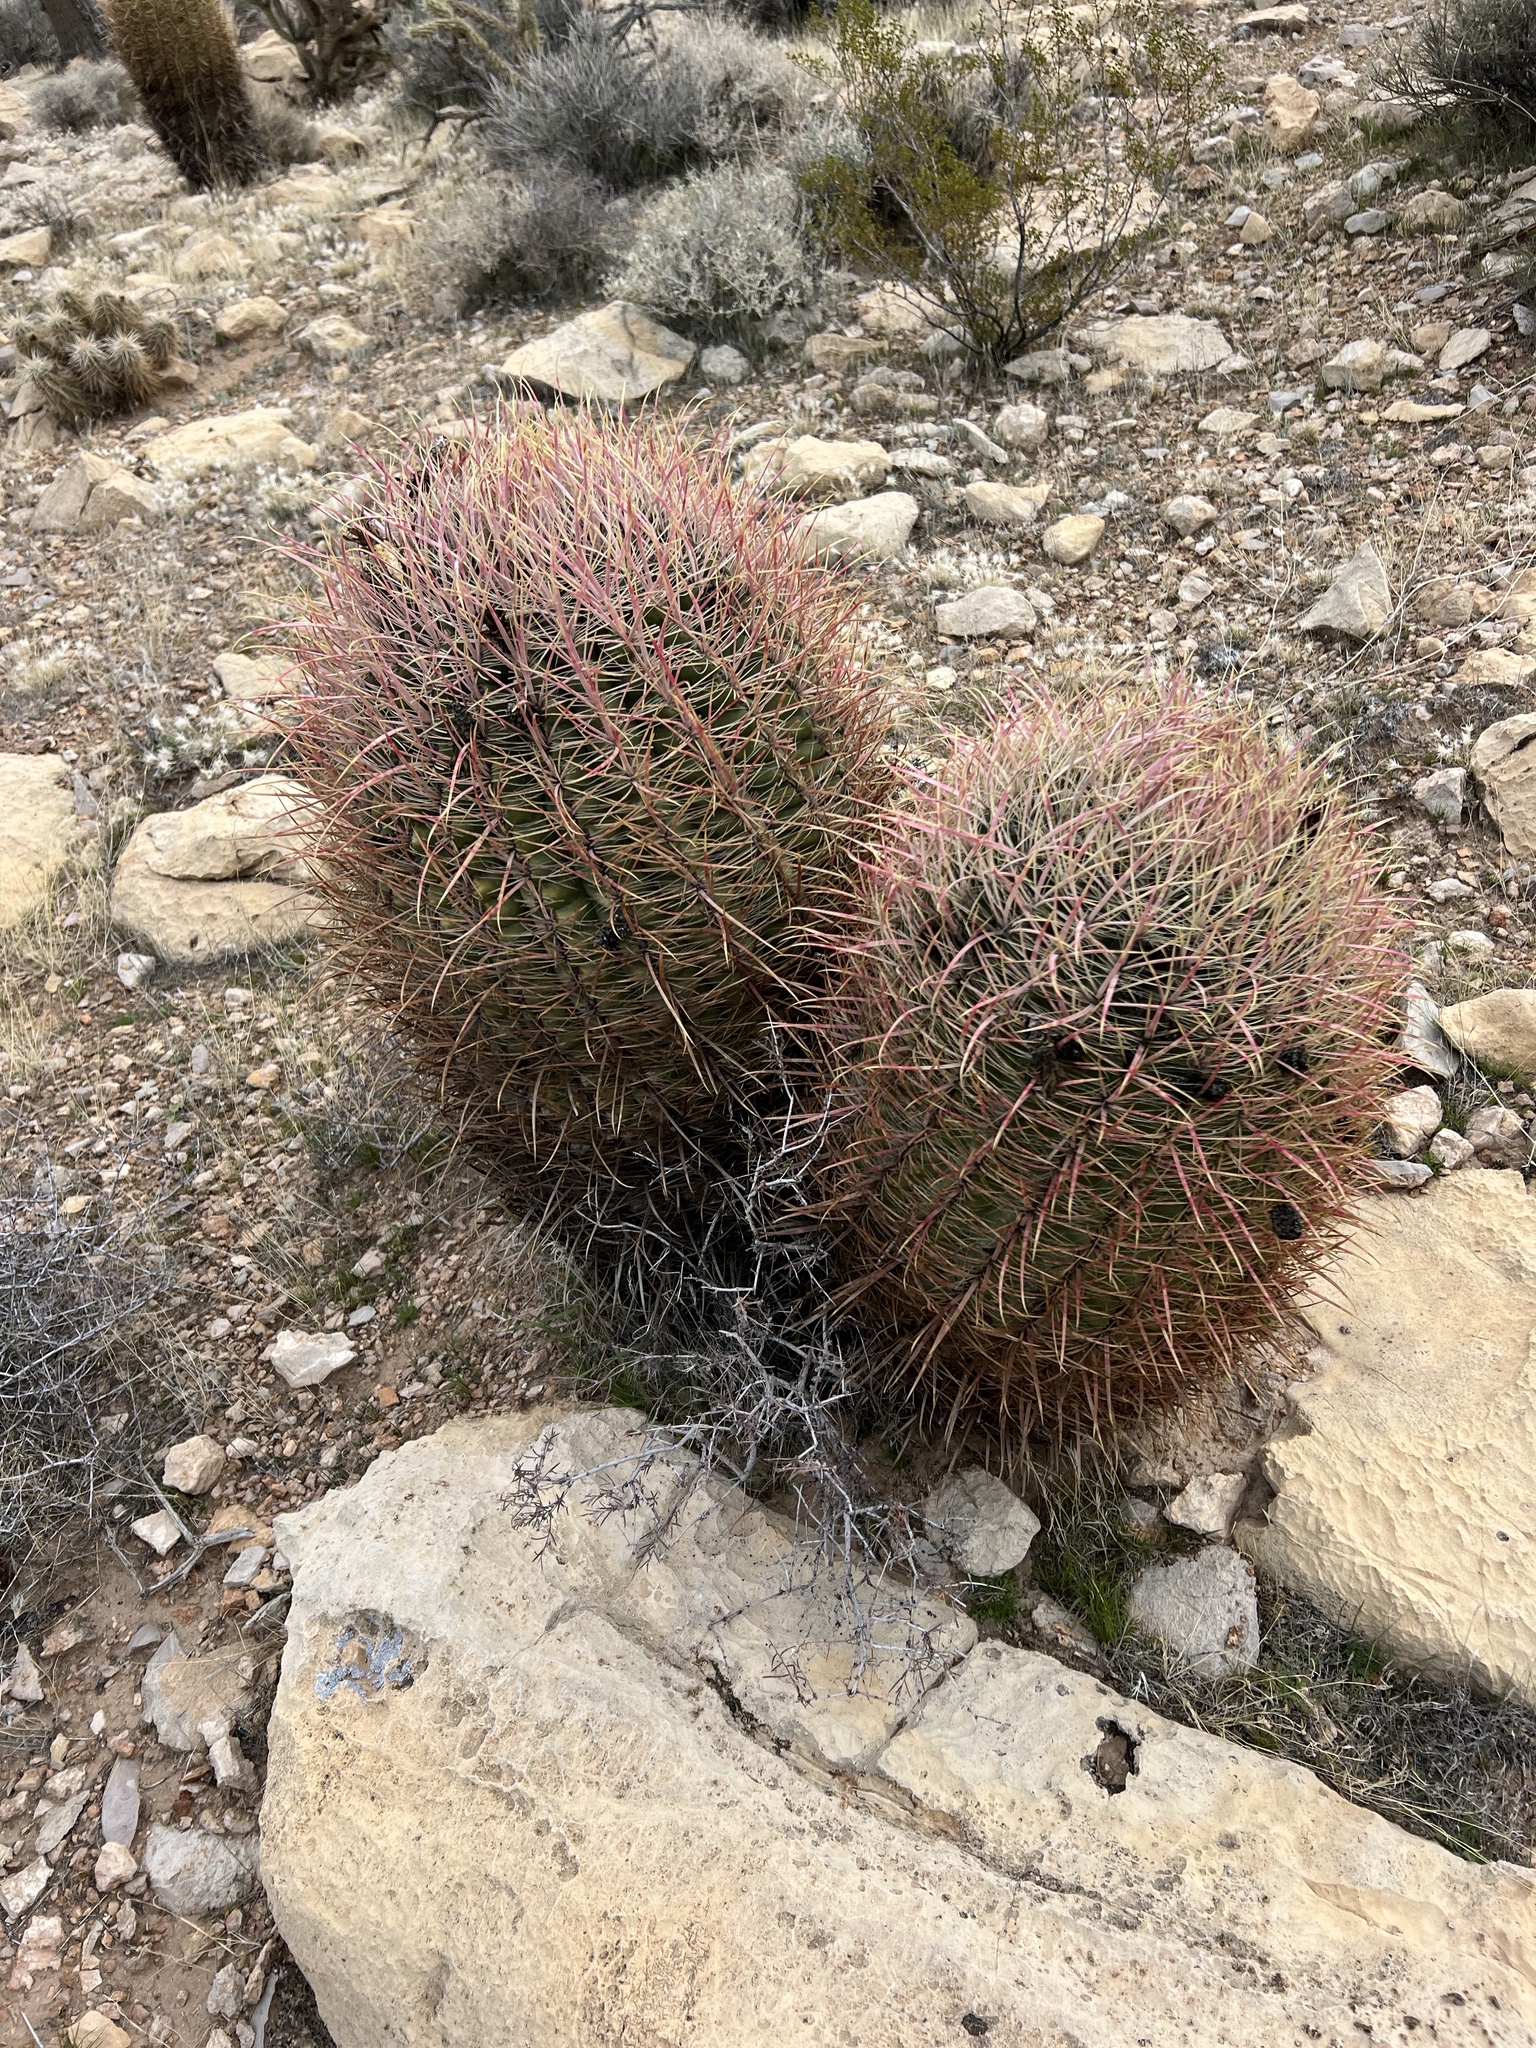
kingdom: Plantae
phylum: Tracheophyta
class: Magnoliopsida
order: Caryophyllales
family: Cactaceae
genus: Ferocactus
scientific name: Ferocactus cylindraceus
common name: California barrel cactus
